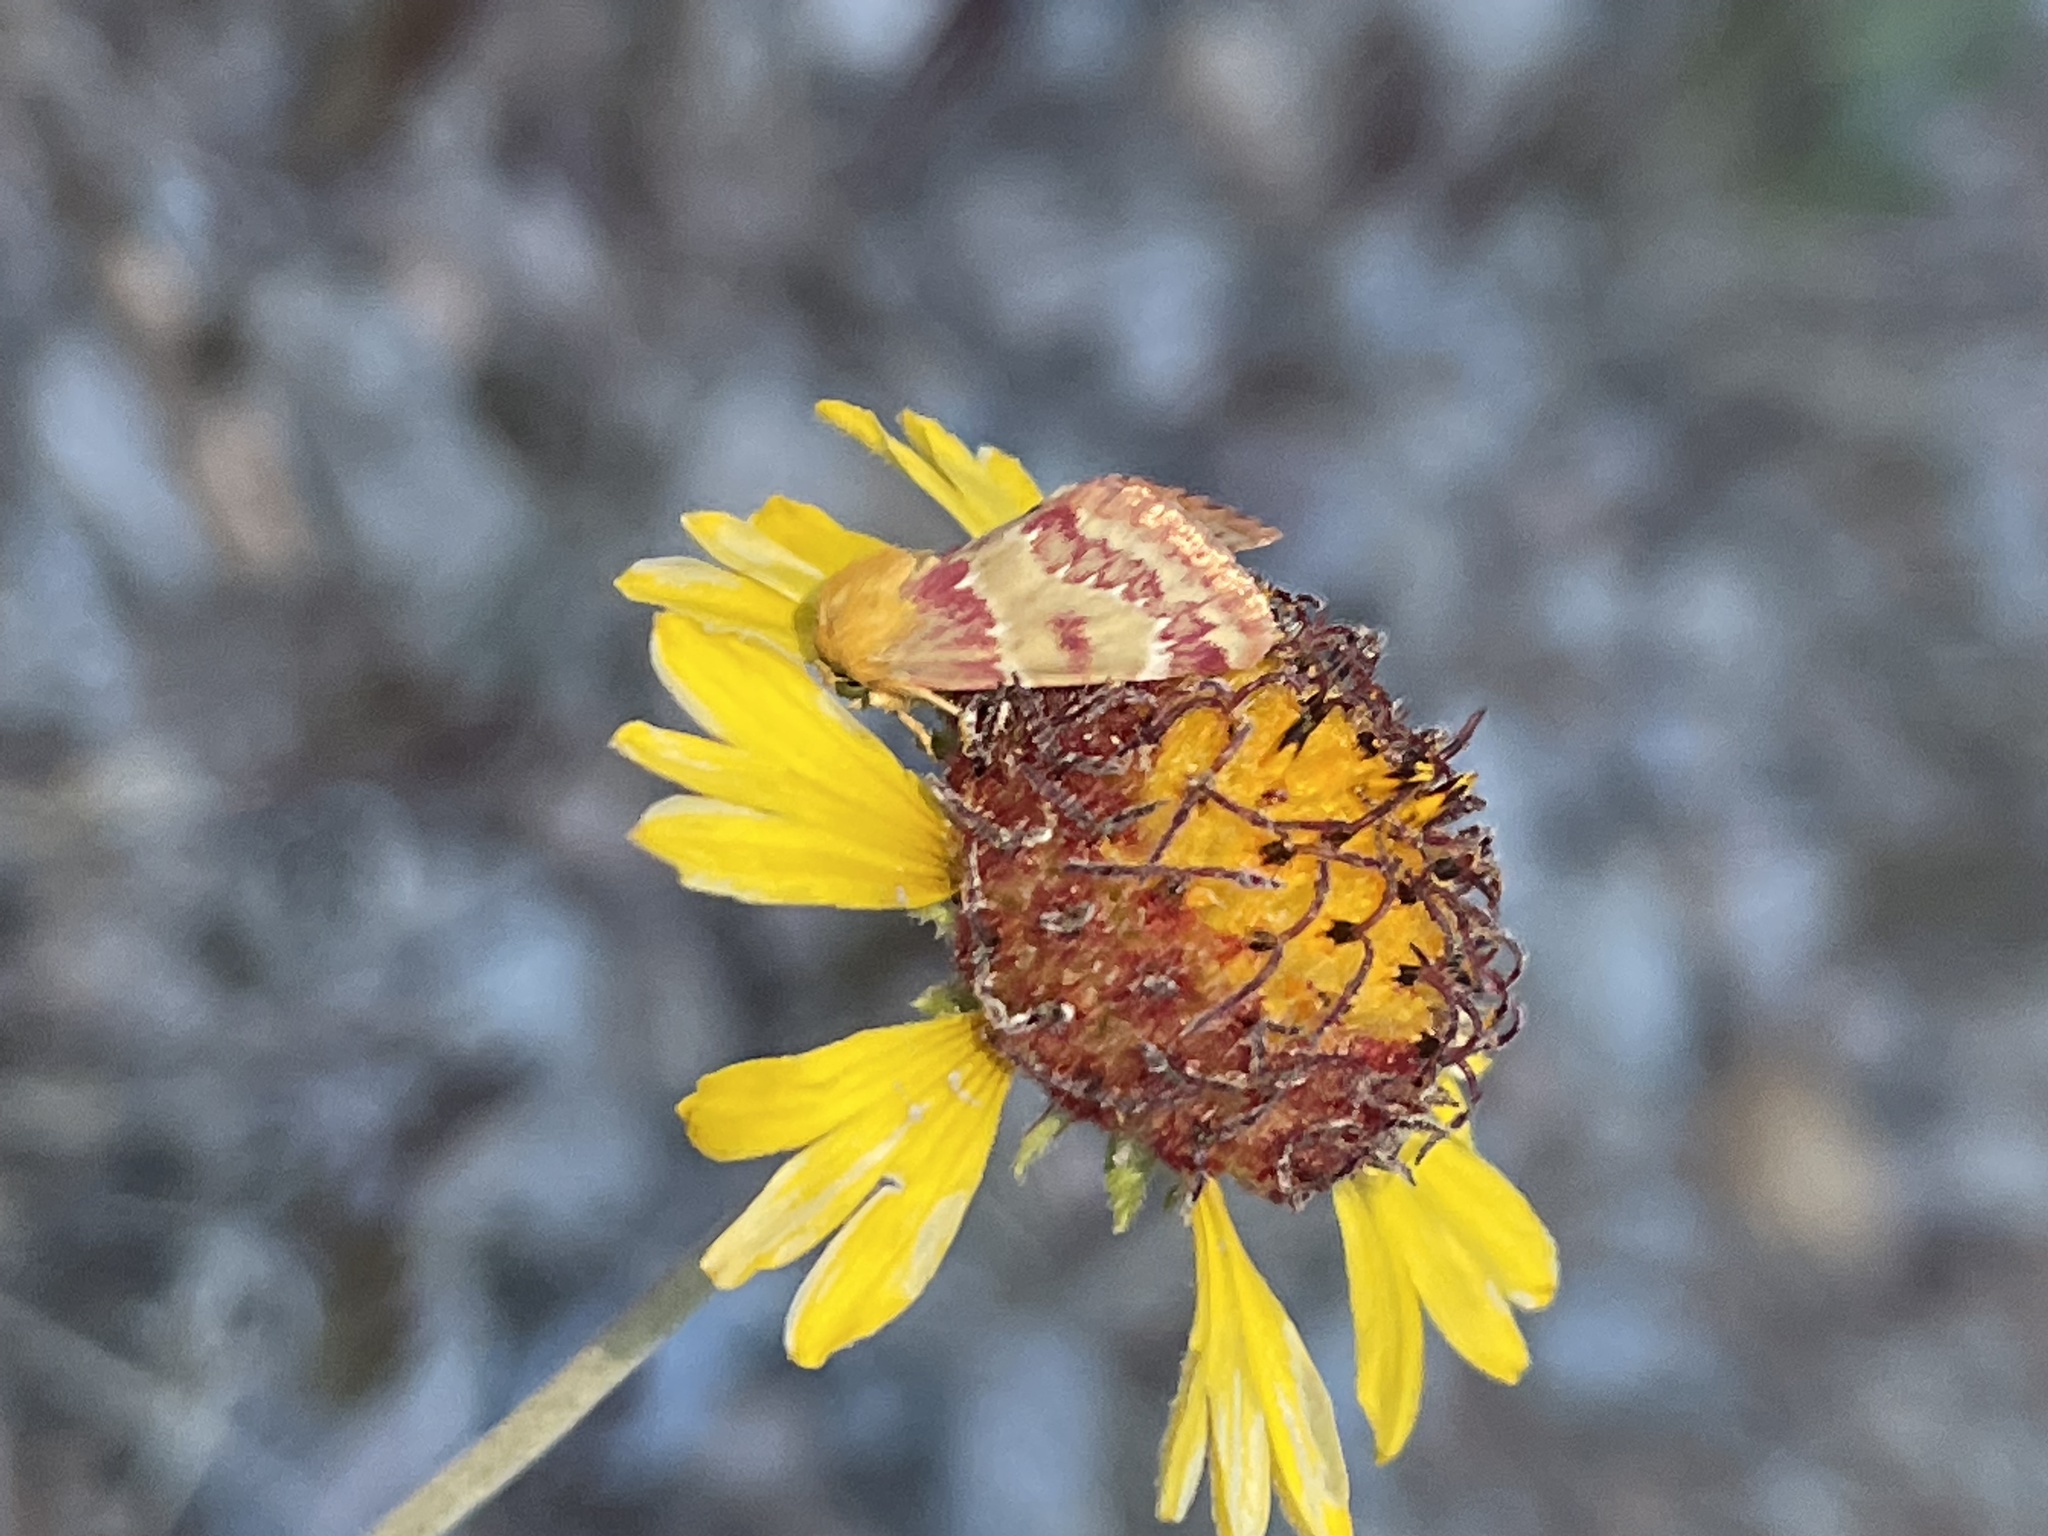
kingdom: Animalia
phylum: Arthropoda
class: Insecta
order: Lepidoptera
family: Noctuidae
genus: Schinia
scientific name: Schinia sanrafaeli
